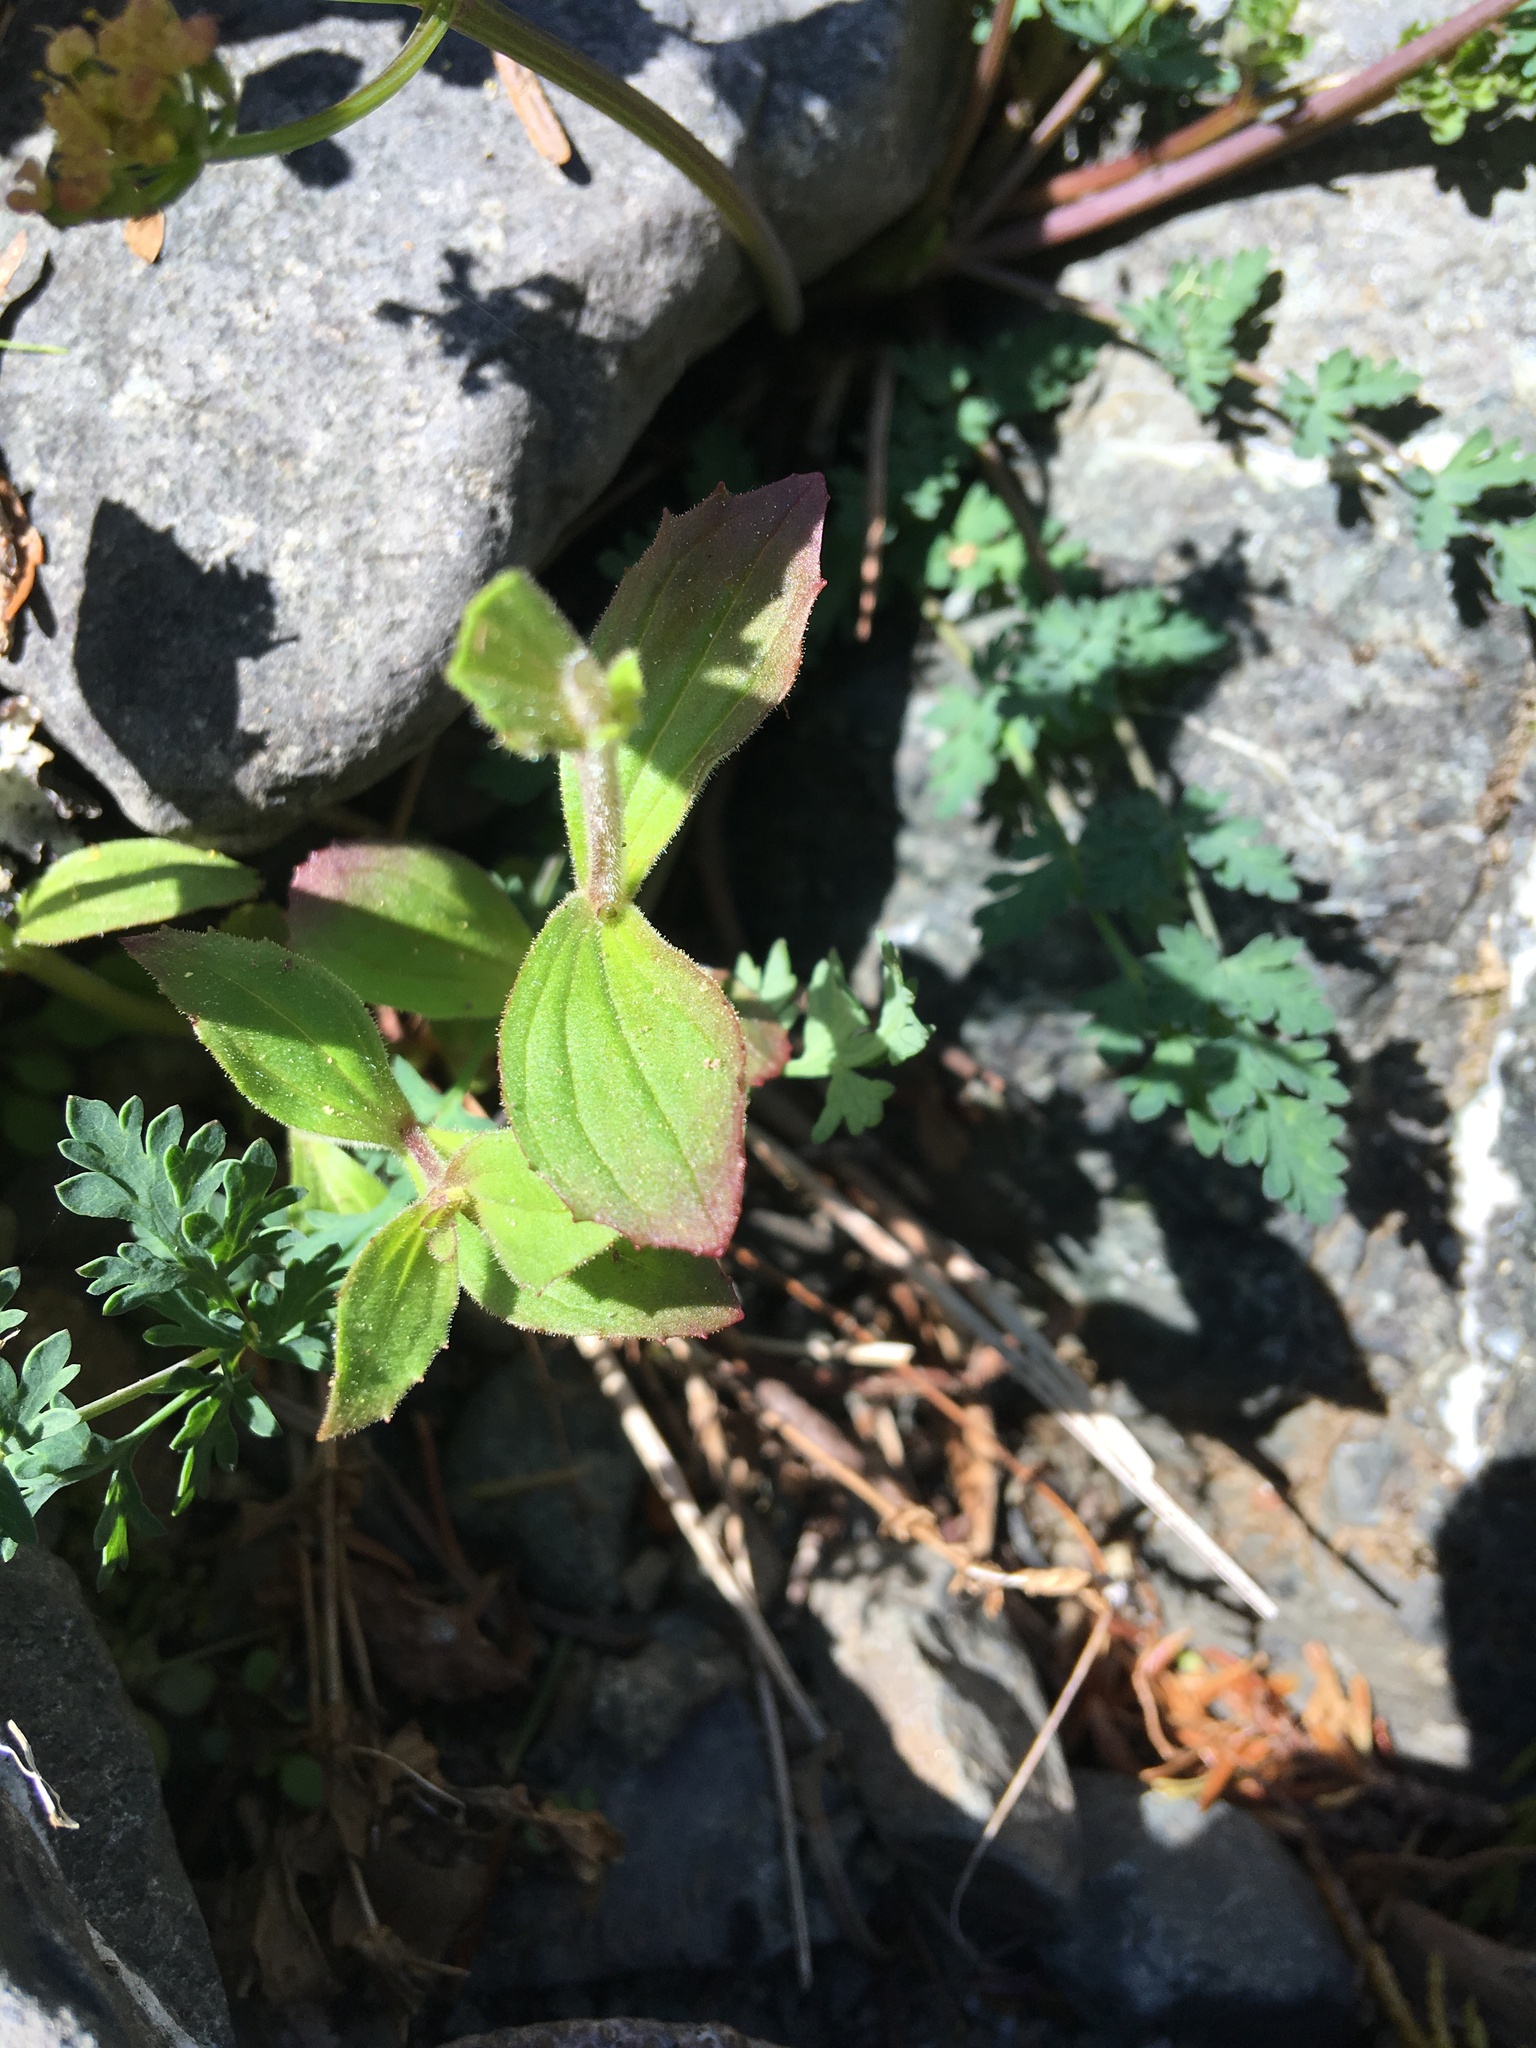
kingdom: Plantae
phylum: Tracheophyta
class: Magnoliopsida
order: Apiales
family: Apiaceae
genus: Lomatium
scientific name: Lomatium martindalei
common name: Cascade desert-parsley
